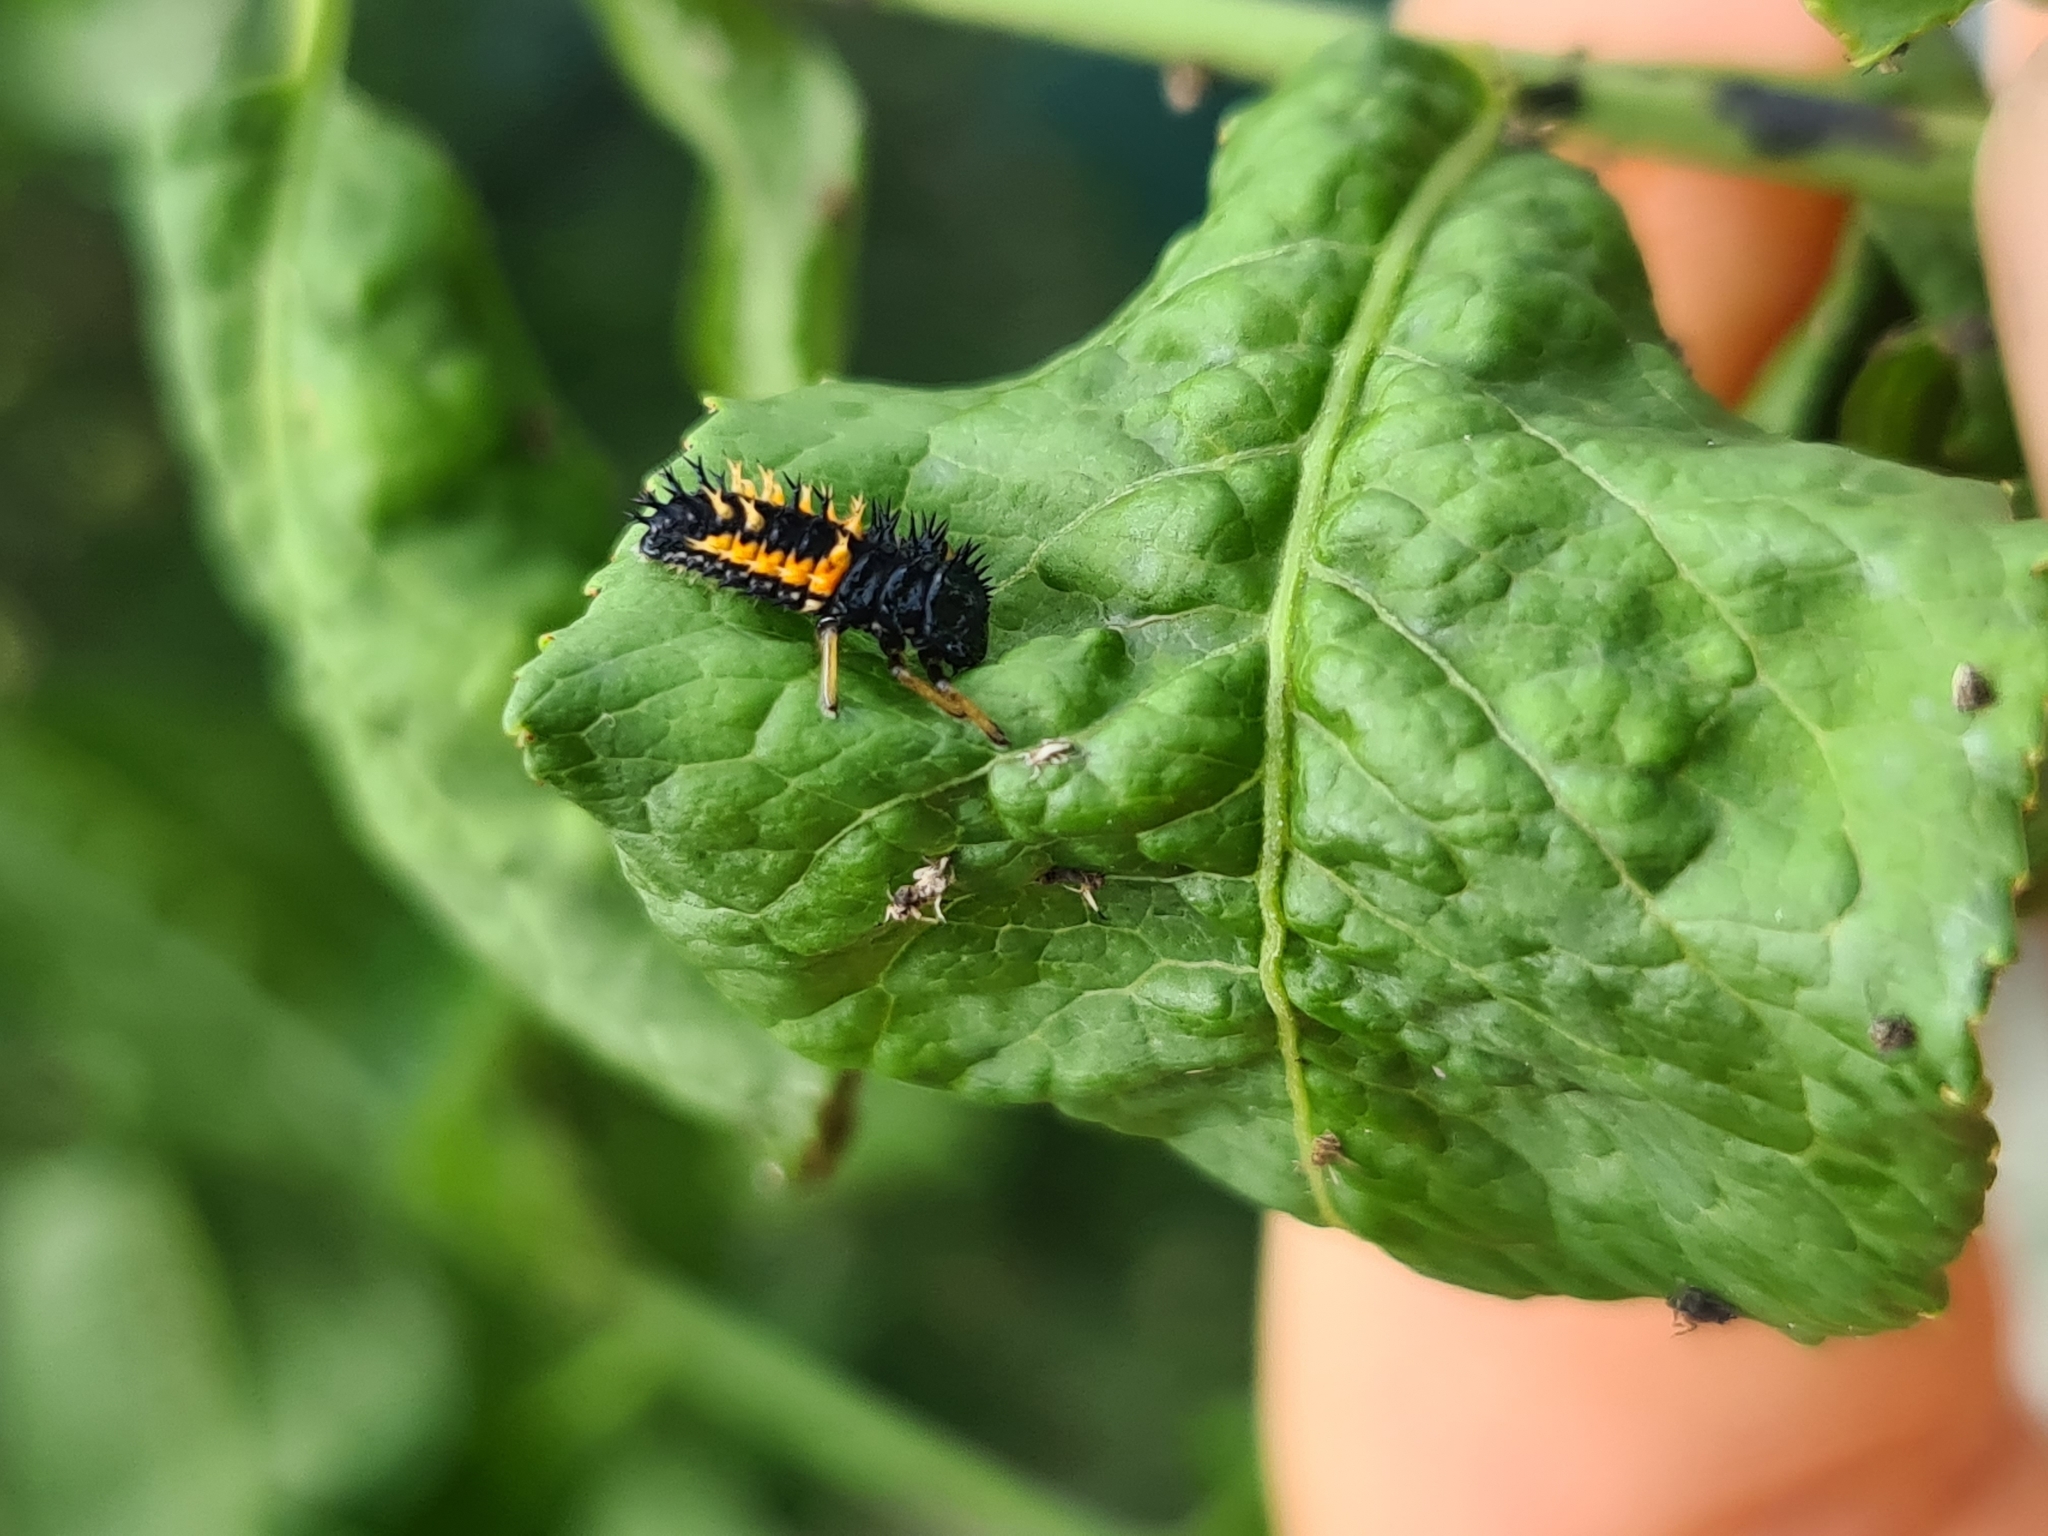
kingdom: Animalia
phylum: Arthropoda
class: Insecta
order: Coleoptera
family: Coccinellidae
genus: Harmonia
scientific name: Harmonia axyridis
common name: Harlequin ladybird
